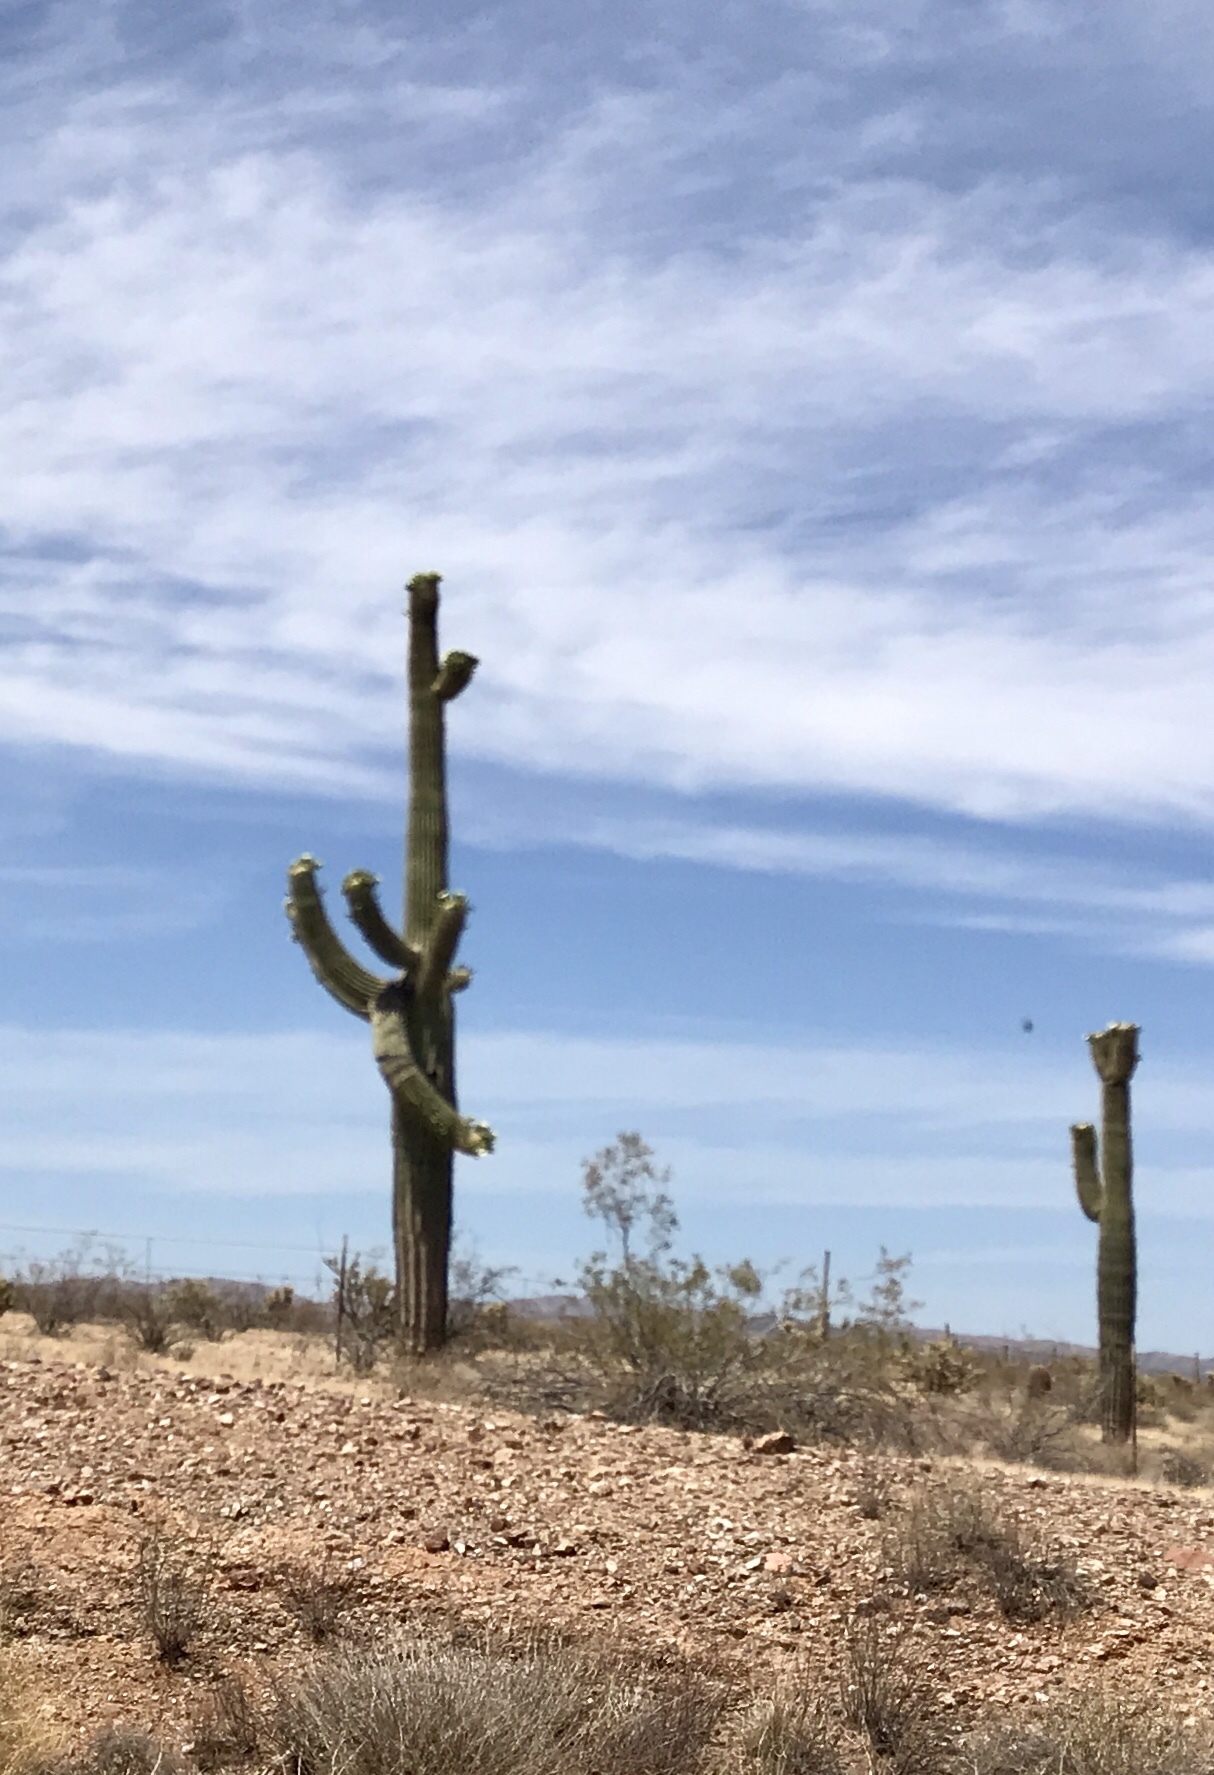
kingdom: Plantae
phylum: Tracheophyta
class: Magnoliopsida
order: Caryophyllales
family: Cactaceae
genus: Carnegiea
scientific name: Carnegiea gigantea
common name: Saguaro
